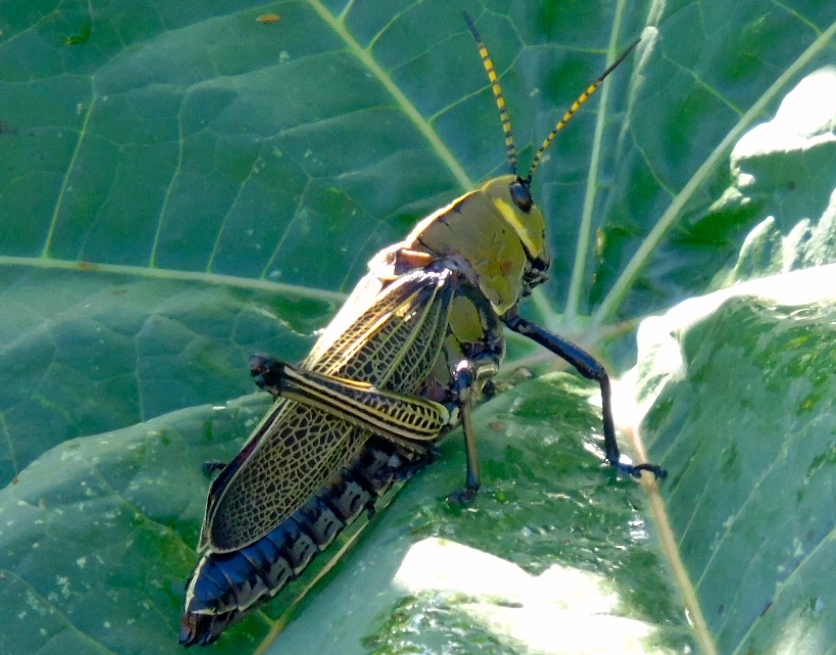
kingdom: Animalia
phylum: Arthropoda
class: Insecta
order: Orthoptera
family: Romaleidae
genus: Romalea
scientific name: Romalea
